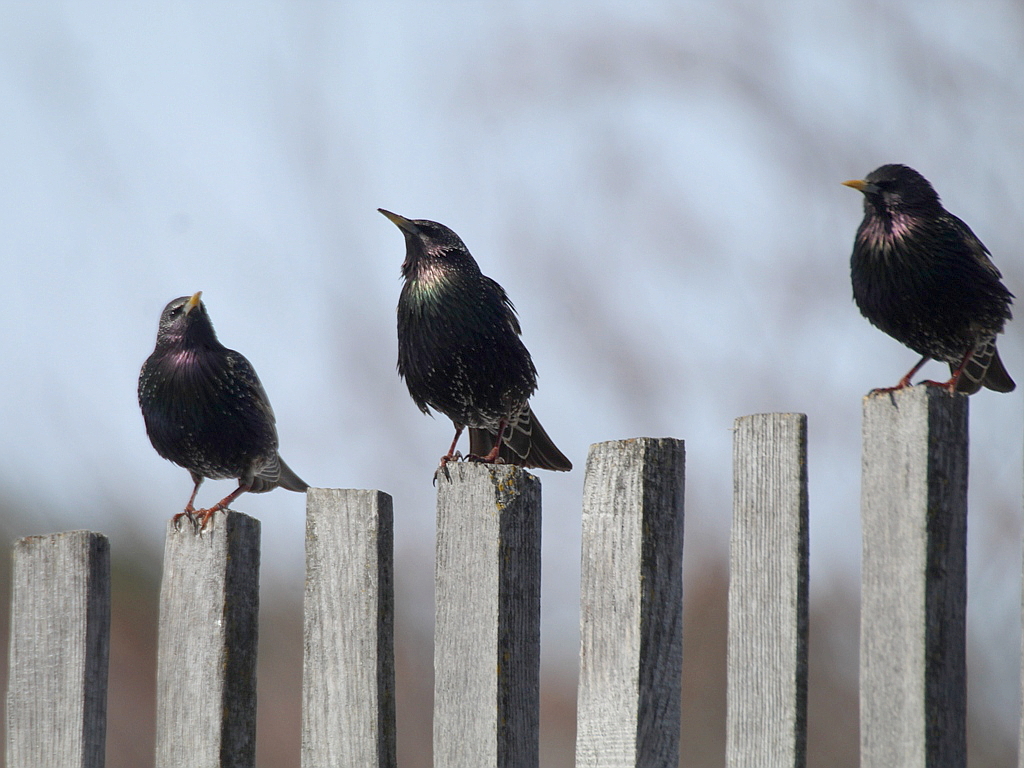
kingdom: Animalia
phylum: Chordata
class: Aves
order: Passeriformes
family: Sturnidae
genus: Sturnus
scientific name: Sturnus vulgaris
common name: Common starling
